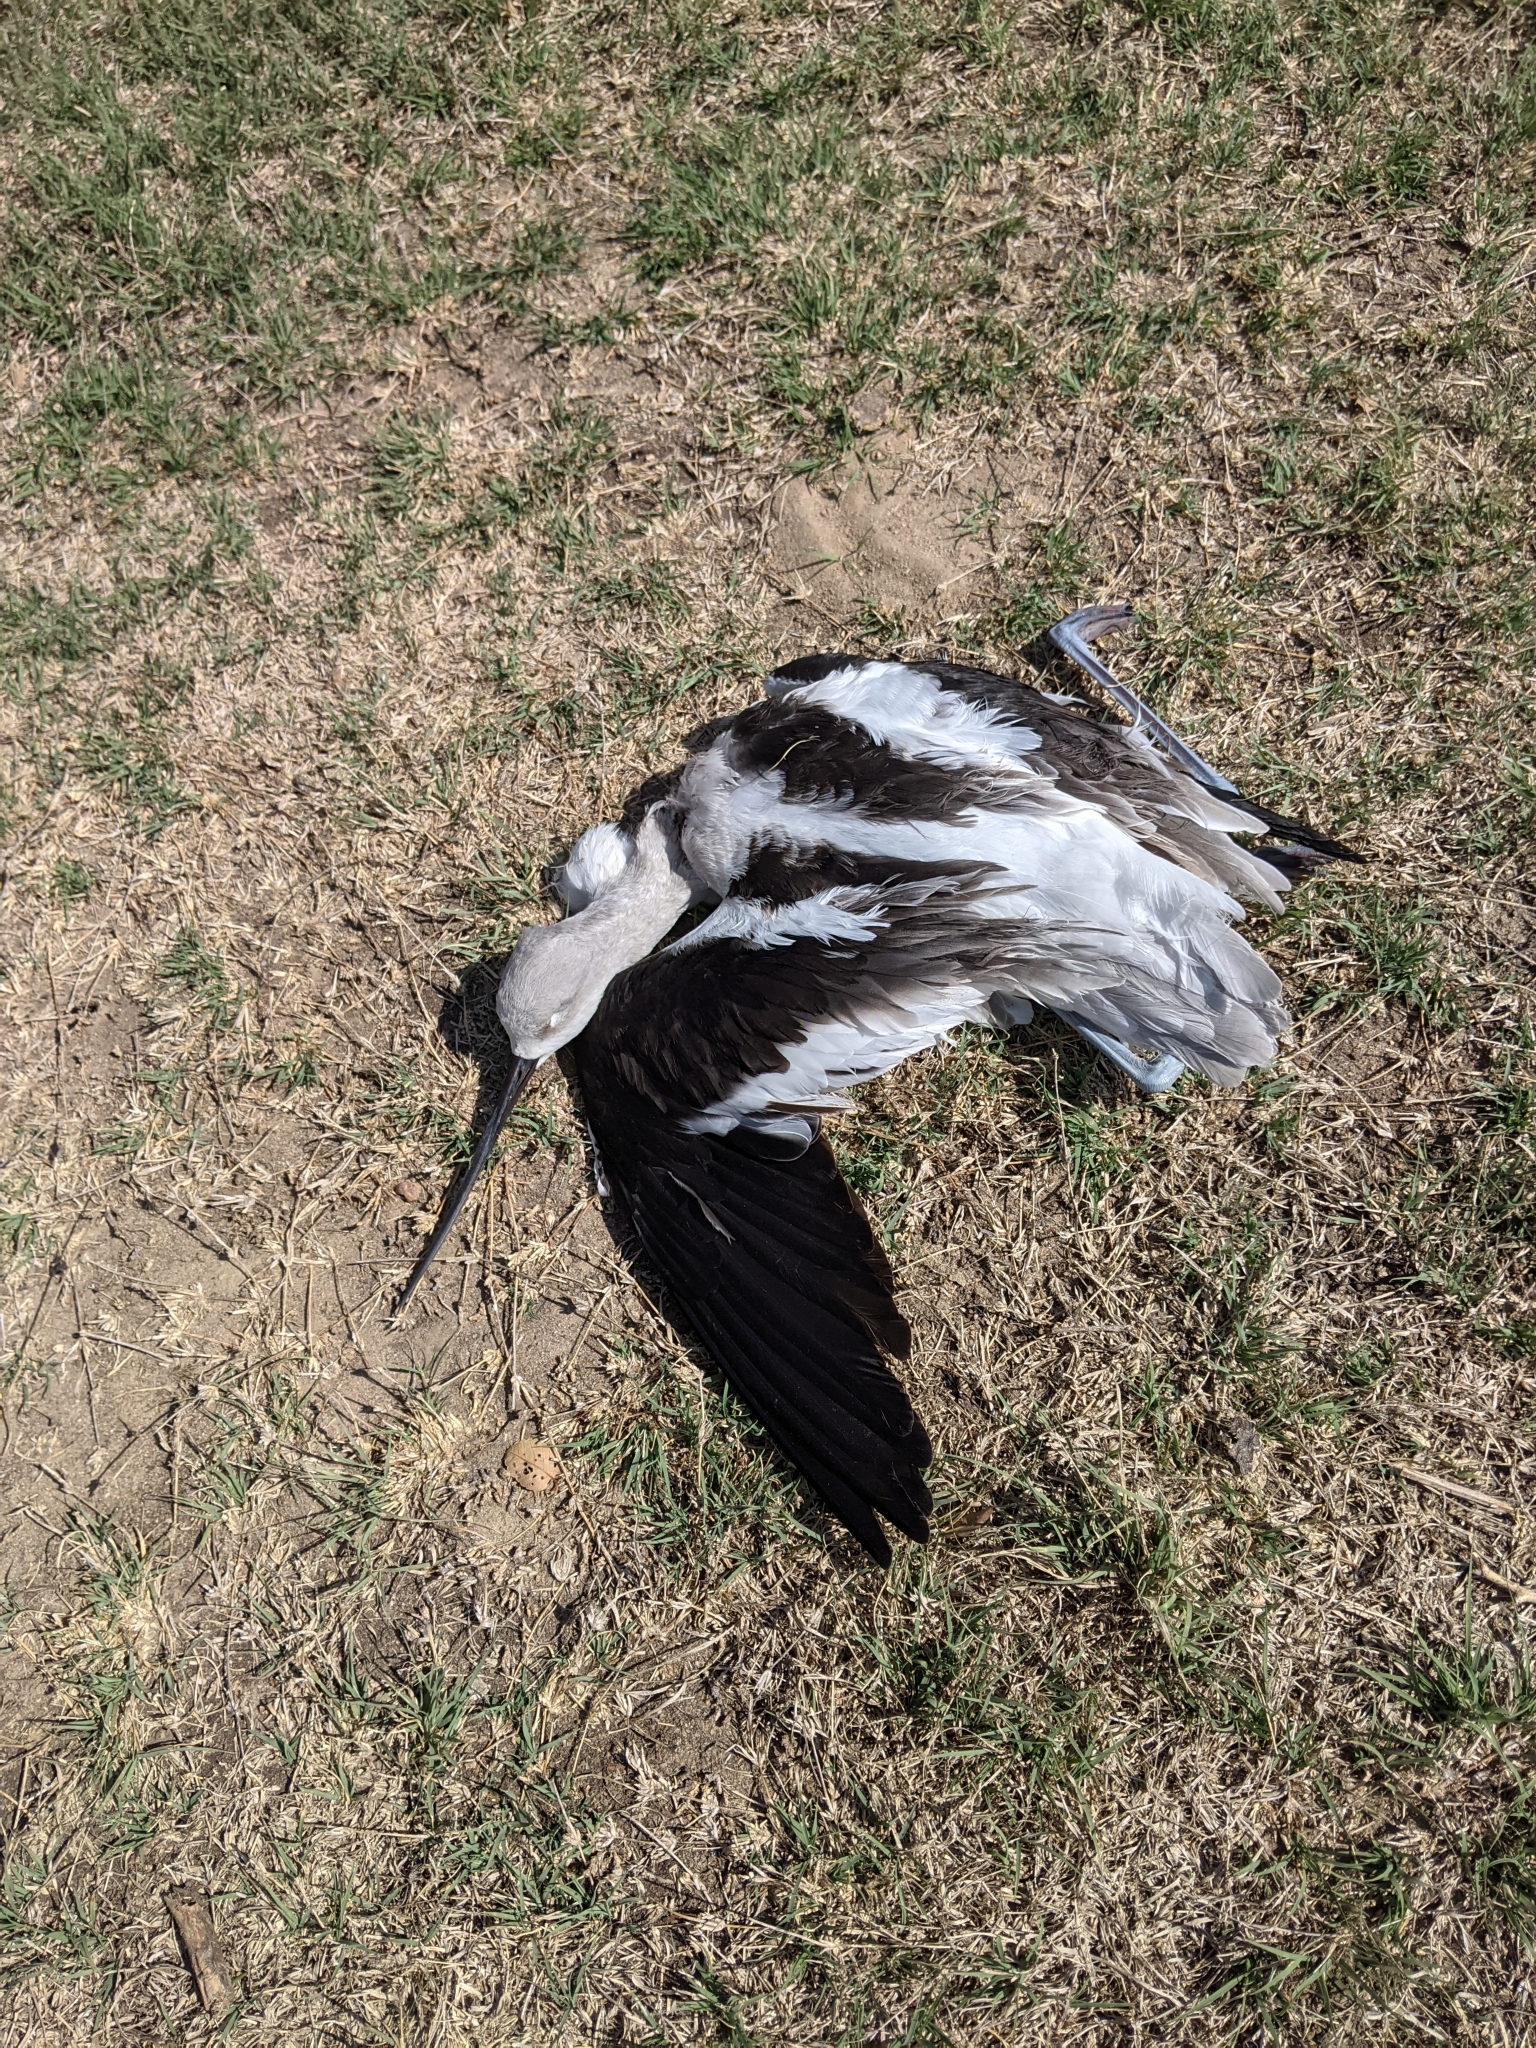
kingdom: Animalia
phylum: Chordata
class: Aves
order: Charadriiformes
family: Recurvirostridae
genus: Recurvirostra
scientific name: Recurvirostra americana
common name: American avocet
